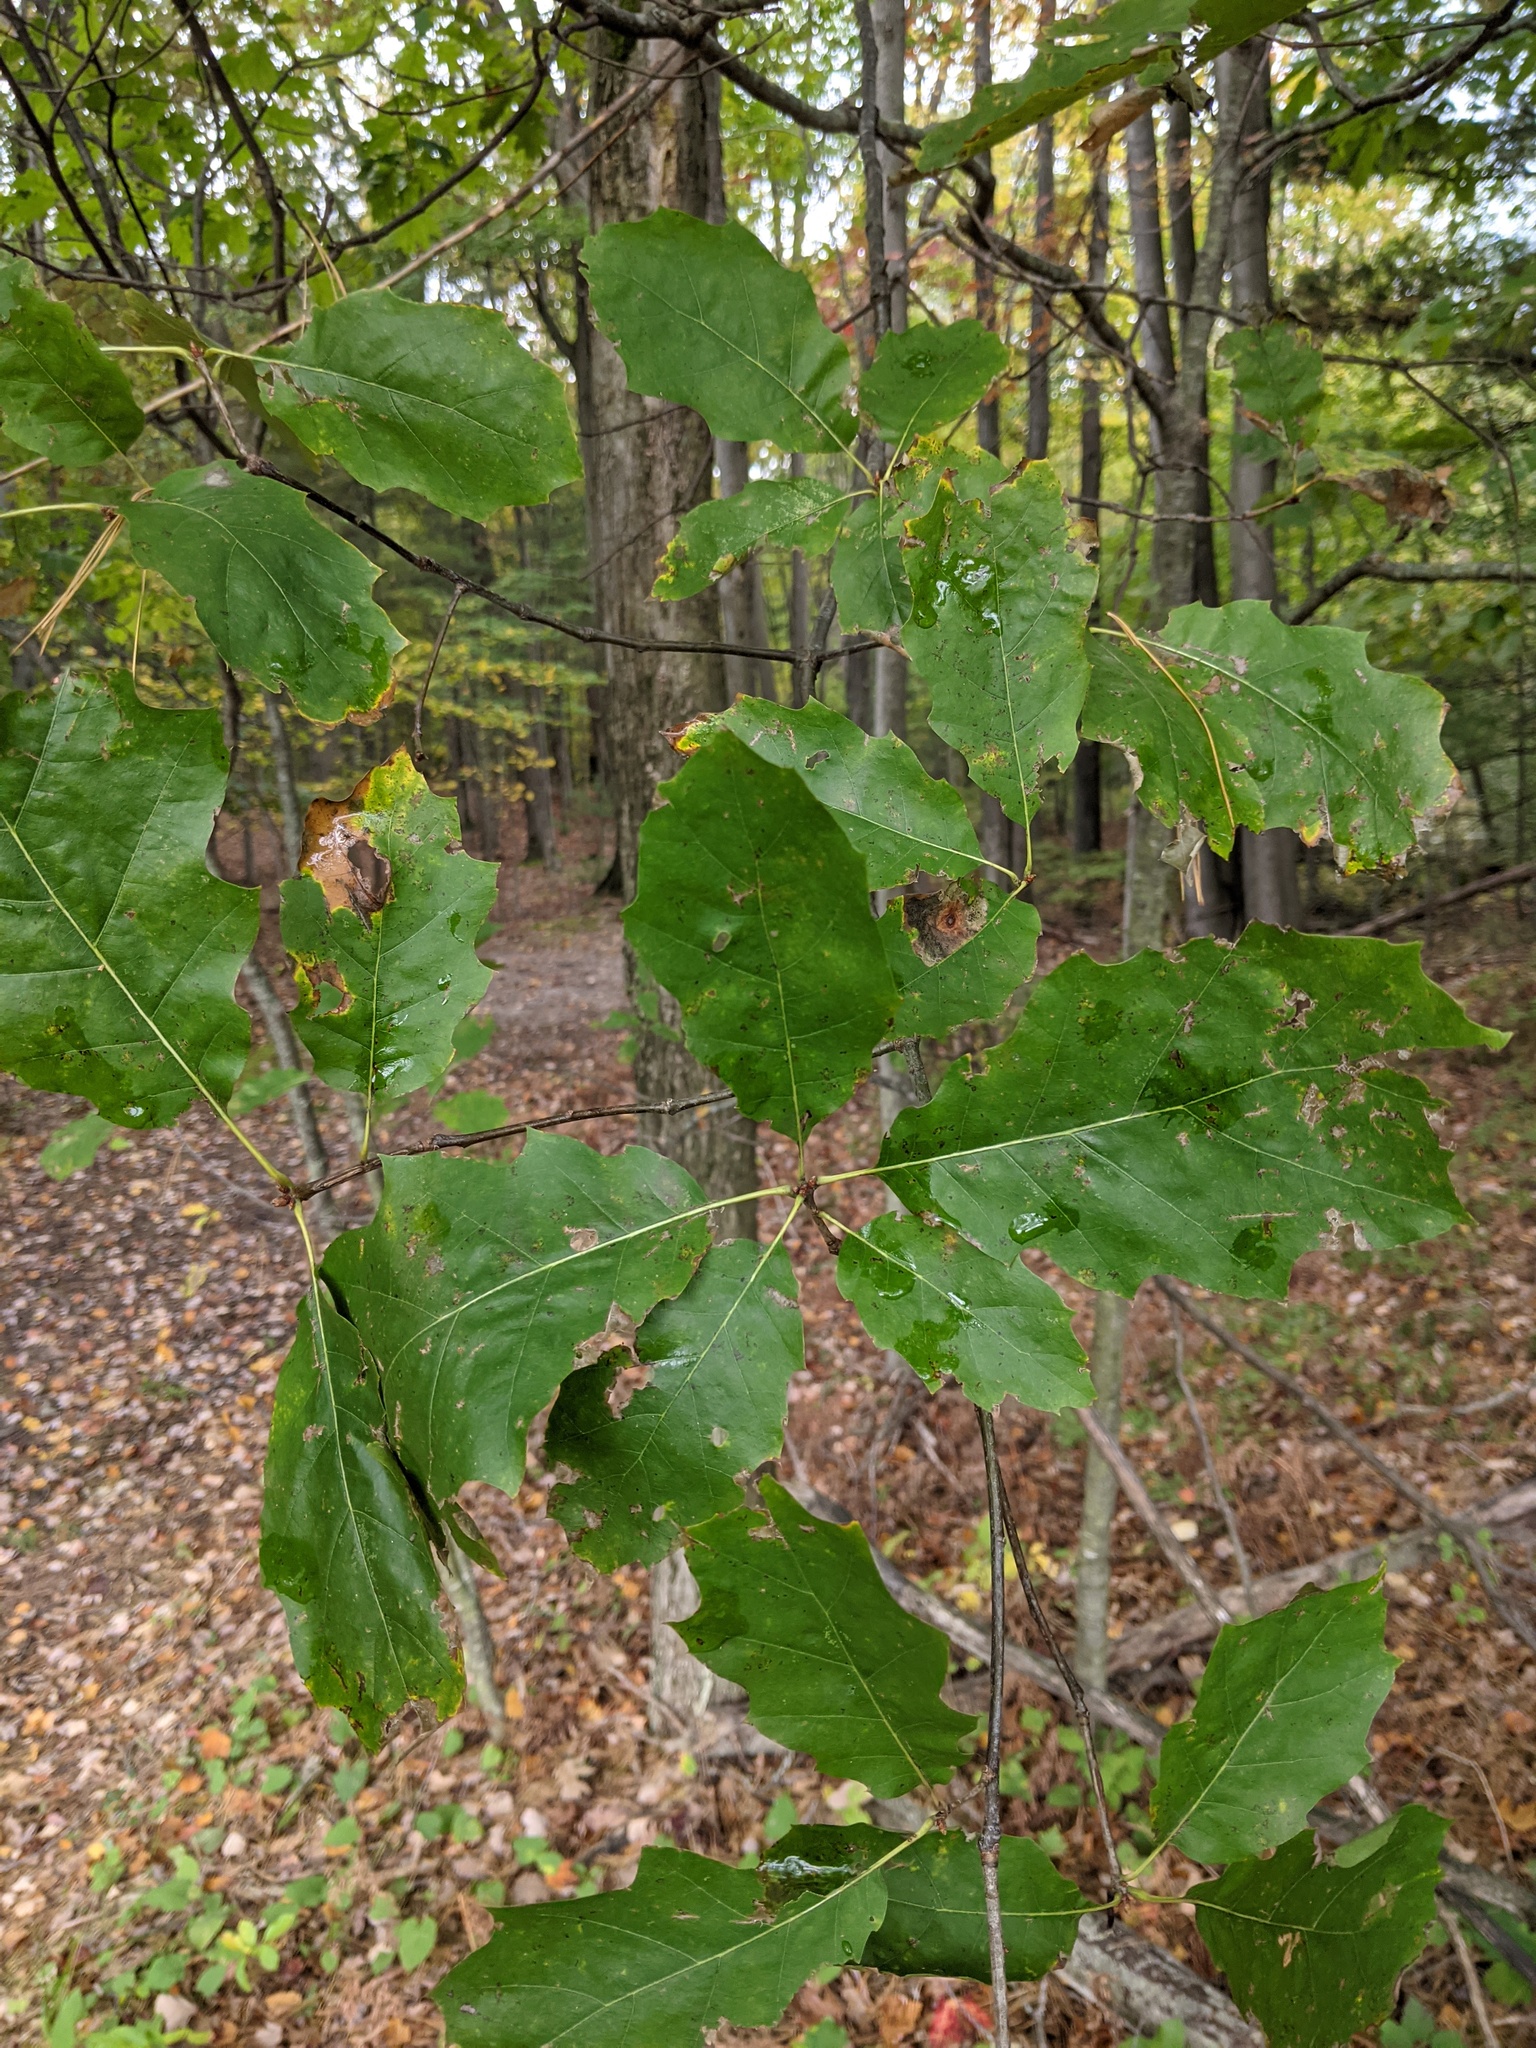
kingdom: Plantae
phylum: Tracheophyta
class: Magnoliopsida
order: Fagales
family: Fagaceae
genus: Quercus
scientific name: Quercus rubra
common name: Red oak
